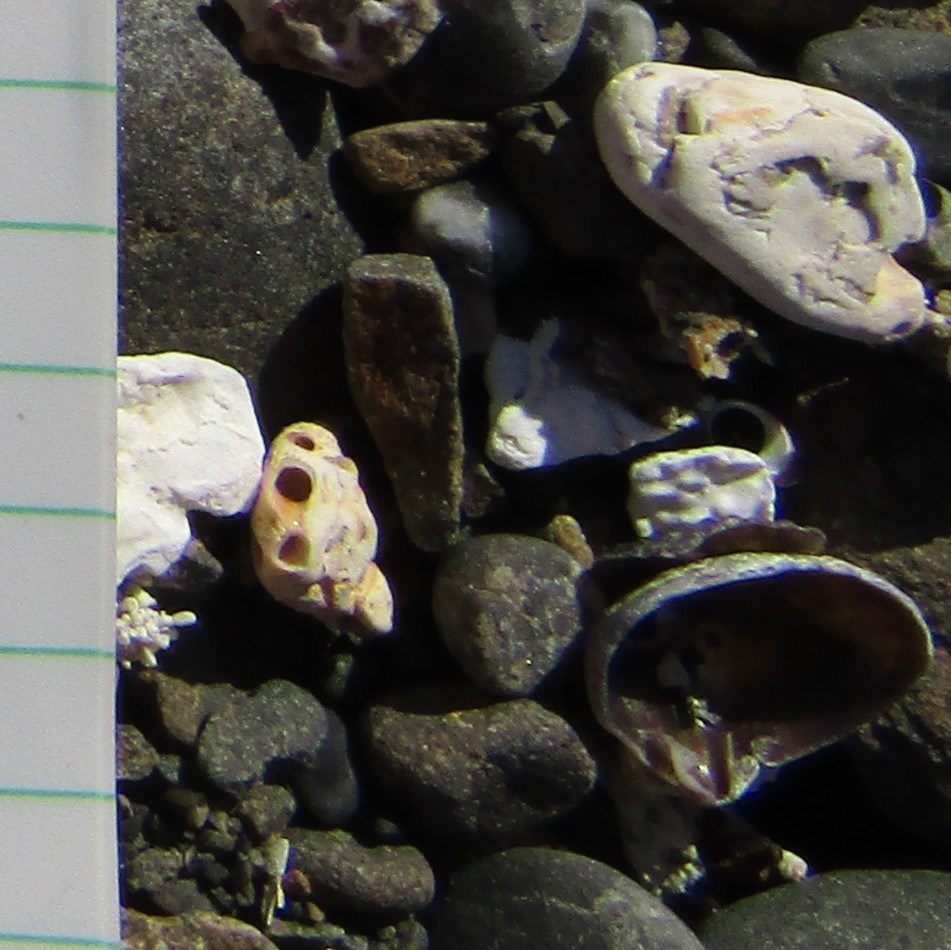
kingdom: Animalia
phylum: Brachiopoda
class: Rhynchonellata
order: Rhynchonellida
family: Notosariidae
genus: Notosaria
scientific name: Notosaria nigricans
